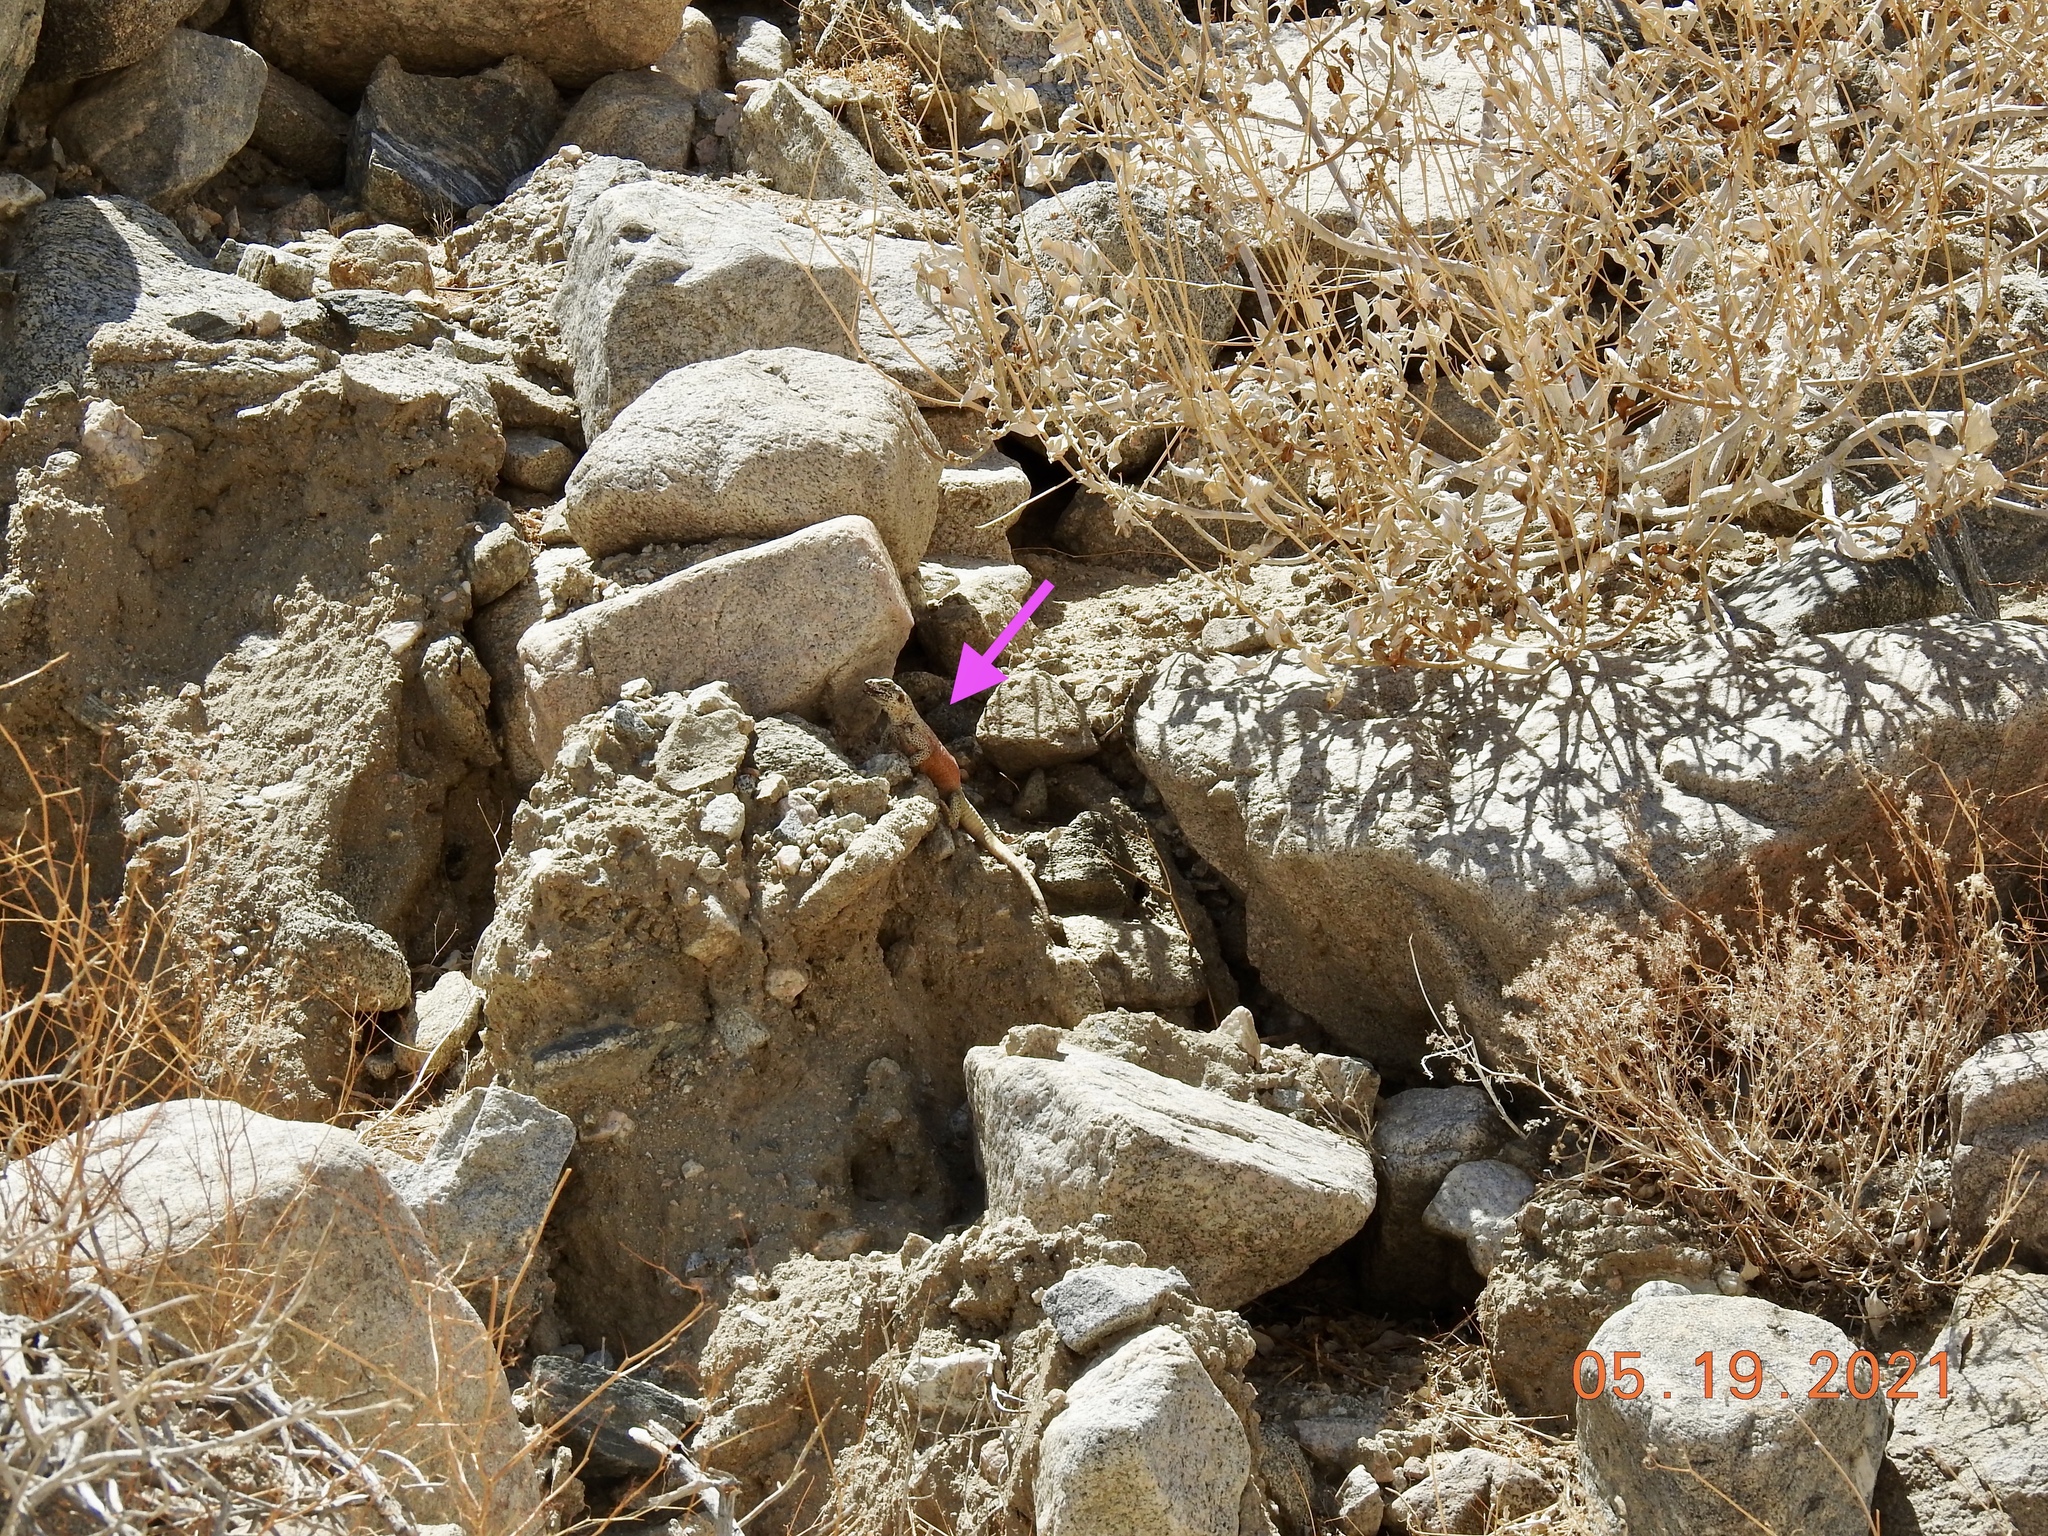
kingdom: Animalia
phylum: Chordata
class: Squamata
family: Iguanidae
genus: Sauromalus
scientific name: Sauromalus ater
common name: Northern chuckwalla
